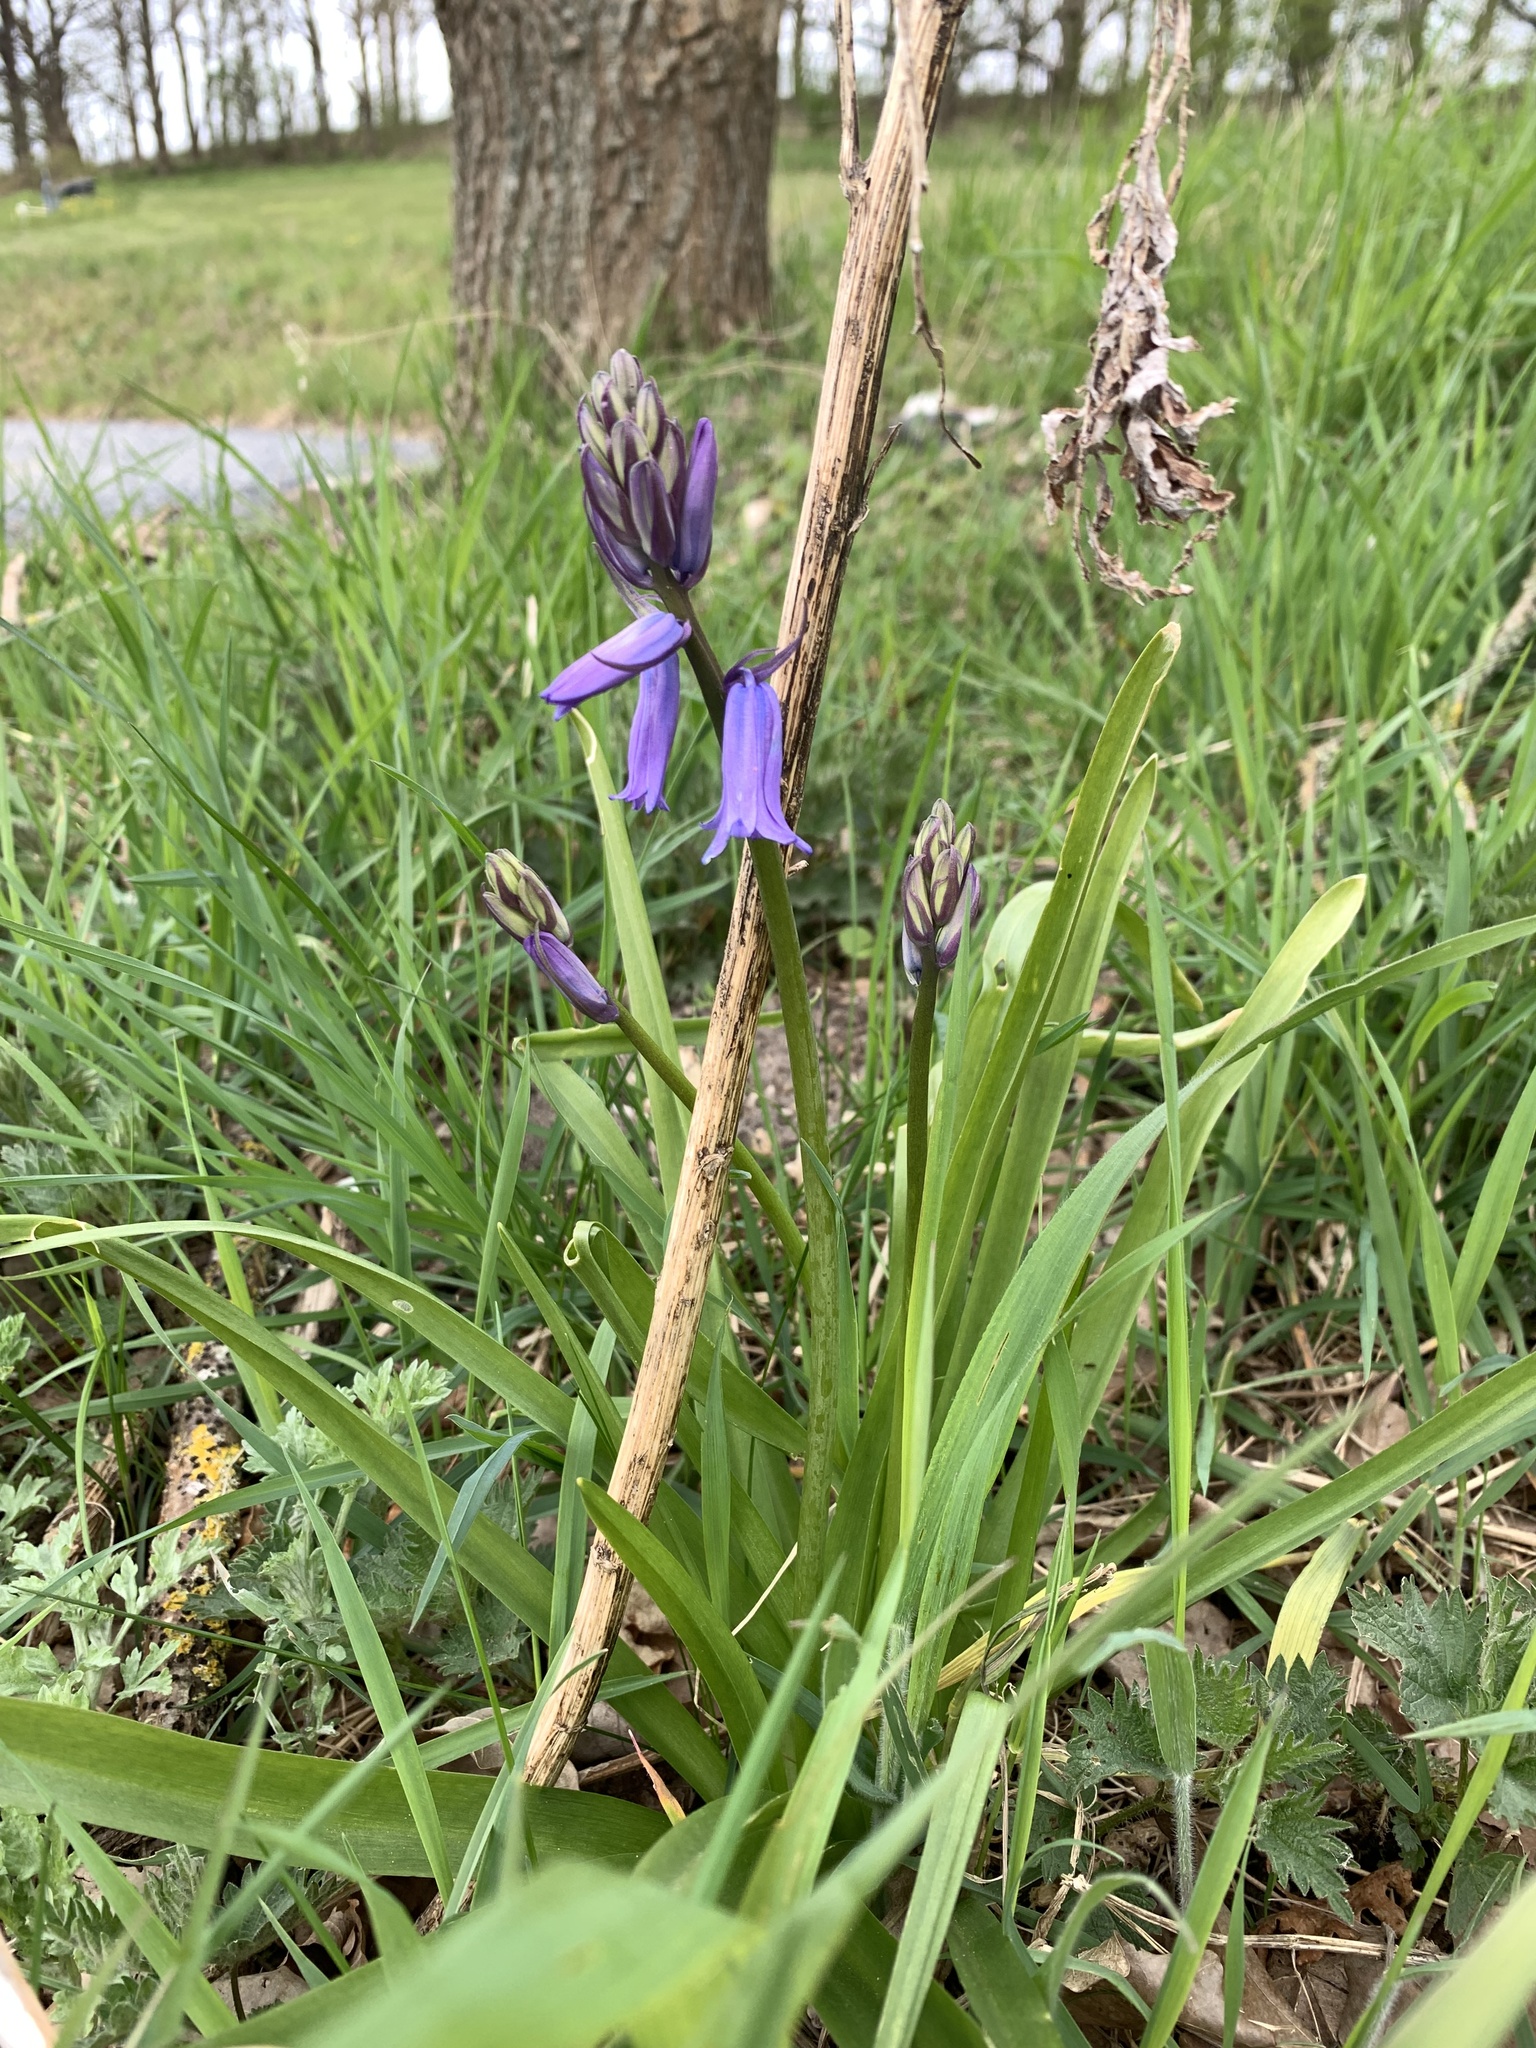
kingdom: Plantae
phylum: Tracheophyta
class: Liliopsida
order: Asparagales
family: Asparagaceae
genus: Hyacinthoides
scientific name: Hyacinthoides non-scripta
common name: Bluebell
